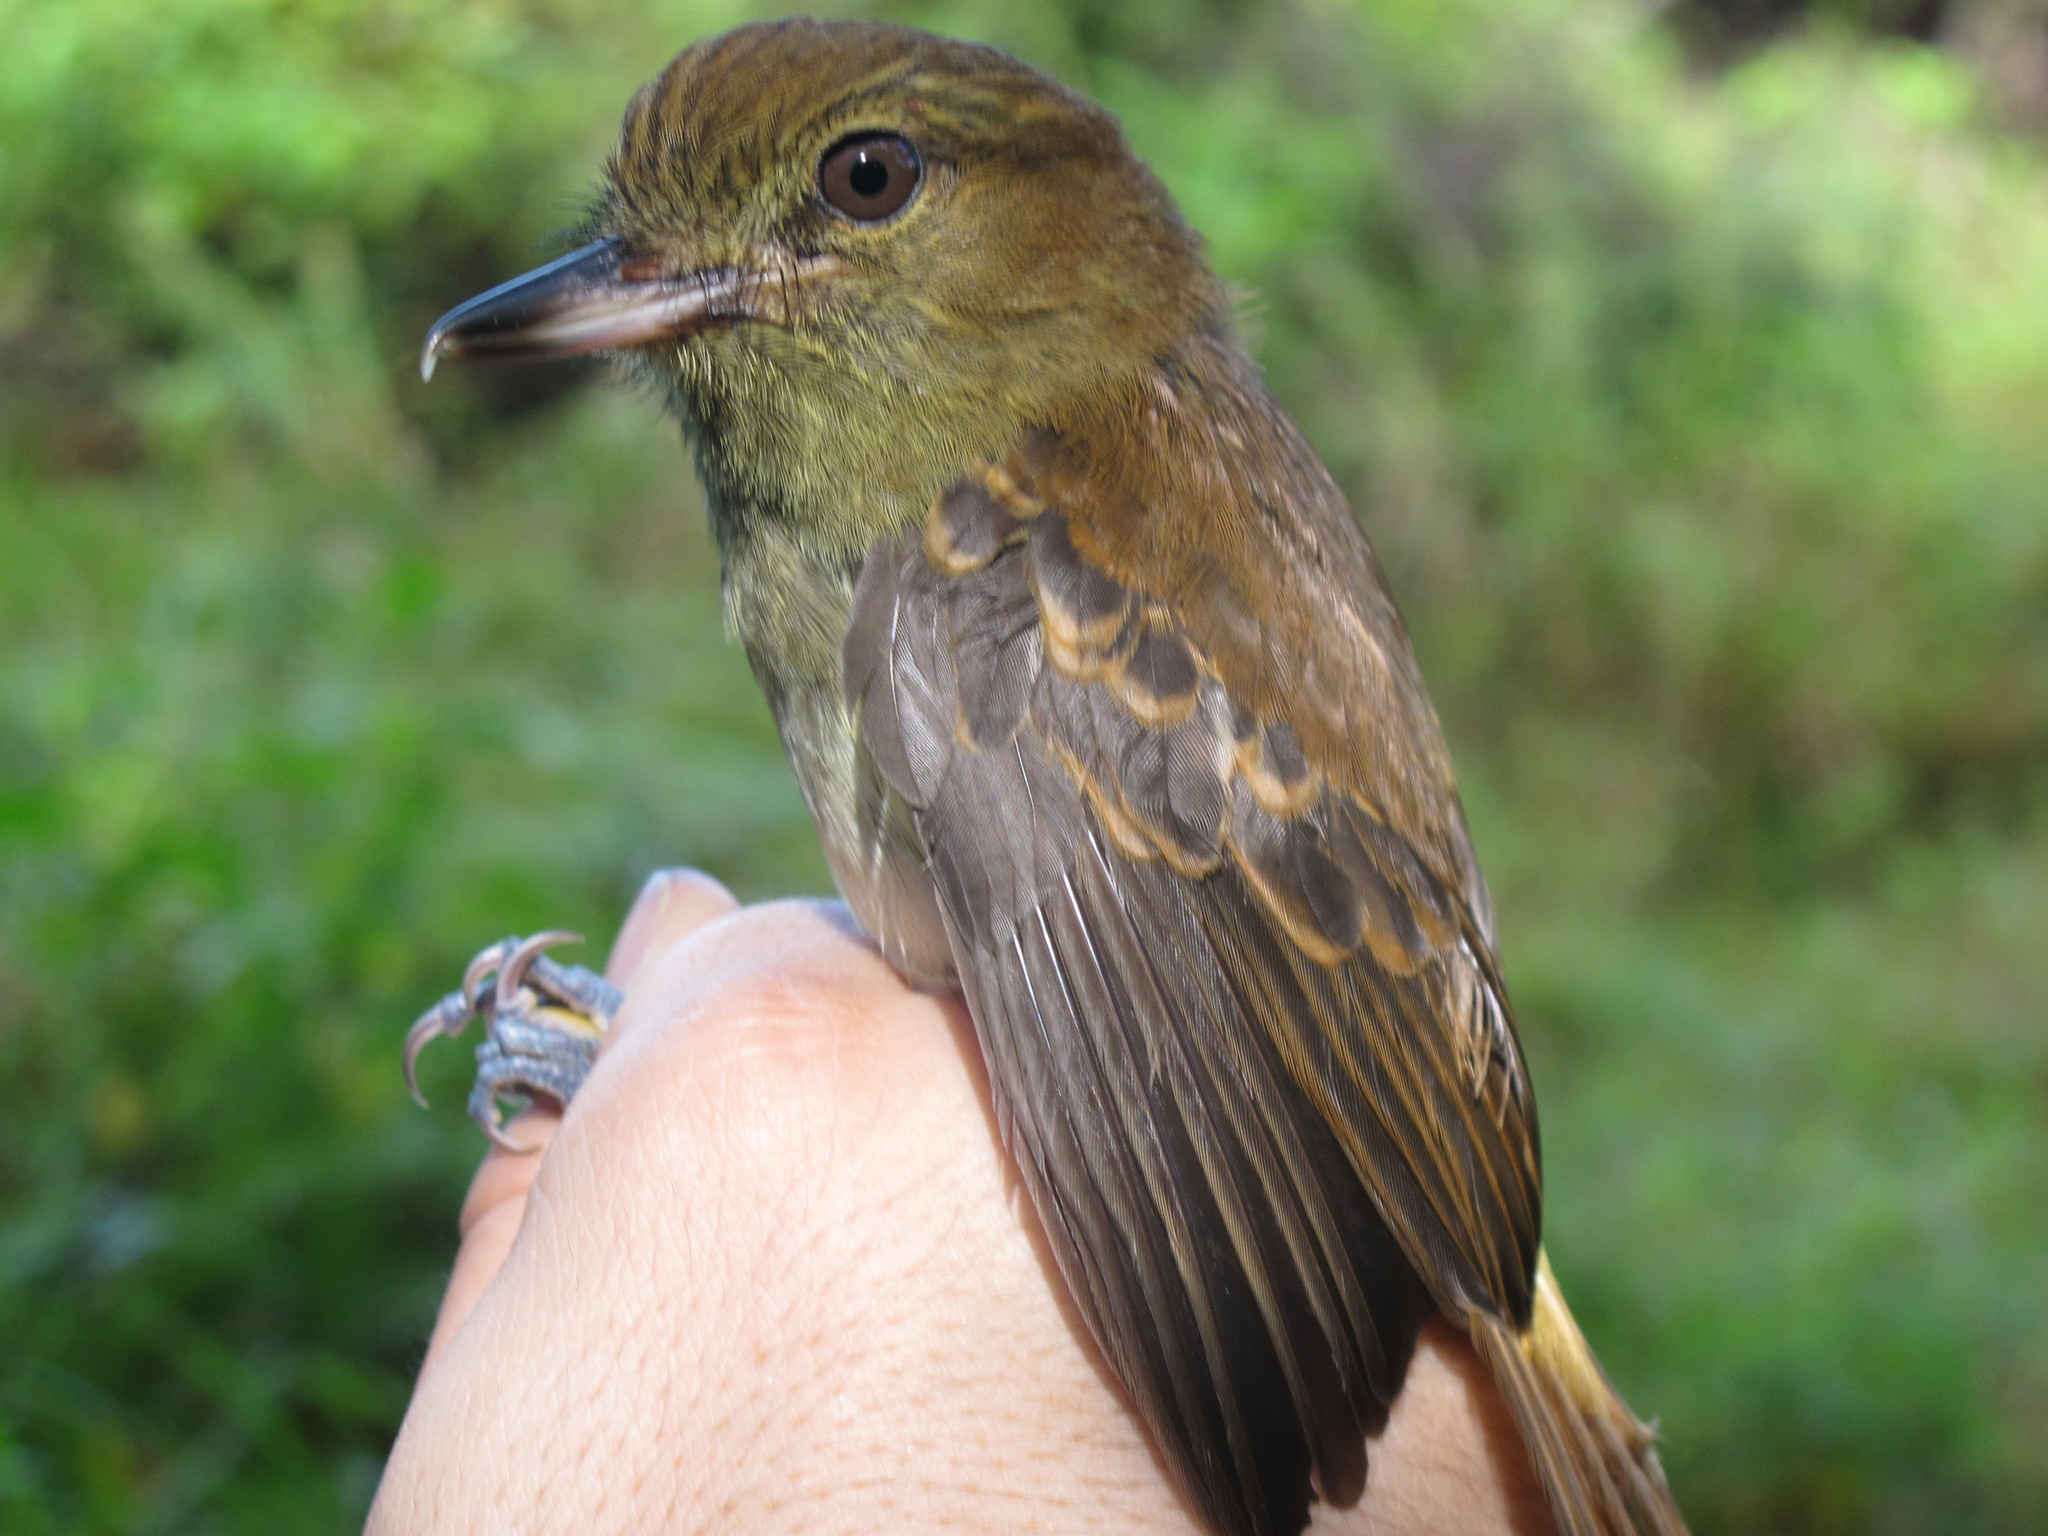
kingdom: Animalia
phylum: Chordata
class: Aves
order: Passeriformes
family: Tyrannidae
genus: Attila
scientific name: Attila spadiceus
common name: Bright-rumped attila
